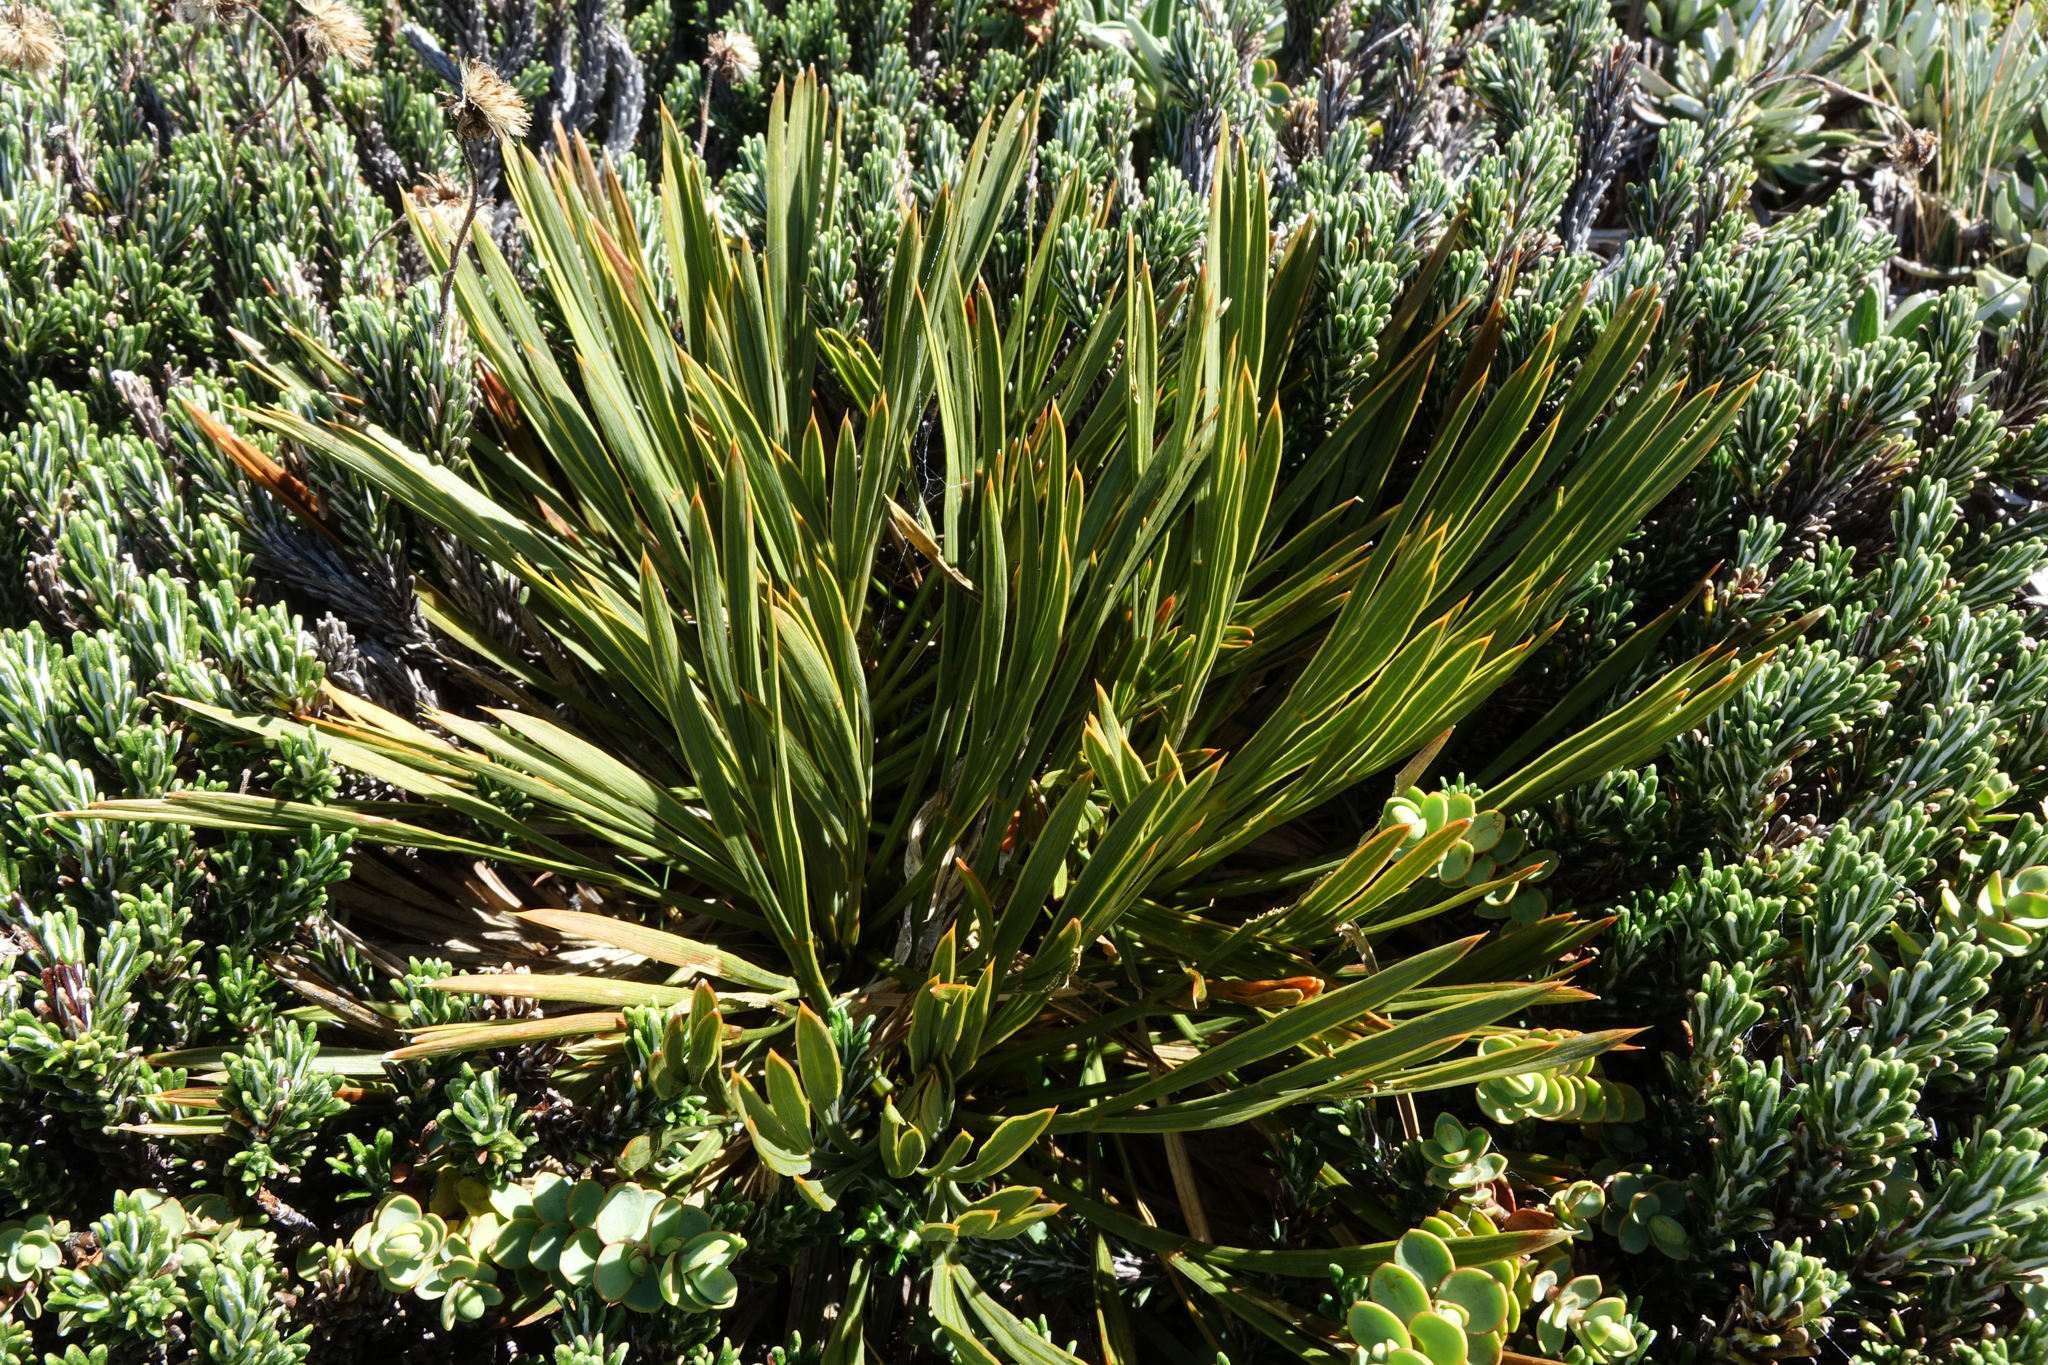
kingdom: Plantae
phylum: Tracheophyta
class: Magnoliopsida
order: Apiales
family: Apiaceae
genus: Aciphylla
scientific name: Aciphylla montana
